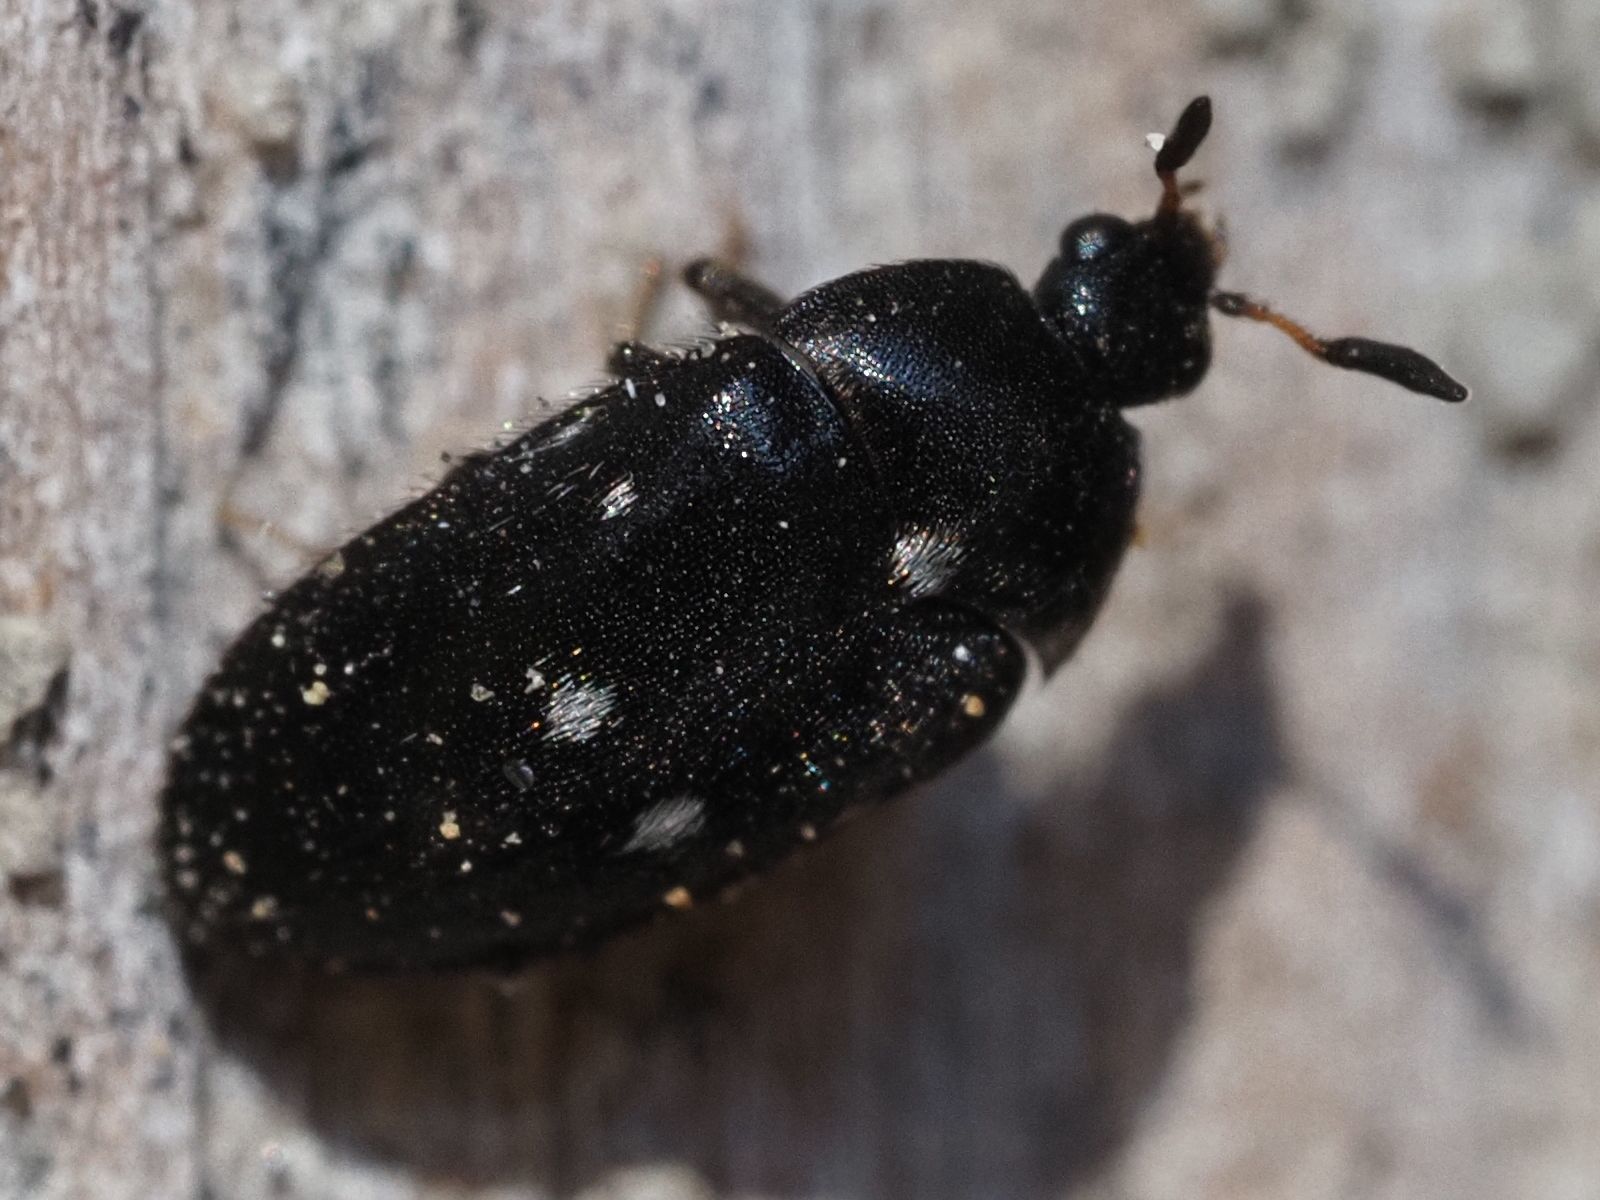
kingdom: Animalia
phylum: Arthropoda
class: Insecta
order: Coleoptera
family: Dermestidae
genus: Attagenus
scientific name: Attagenus pellio
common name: Two-spotted carpet beetle
